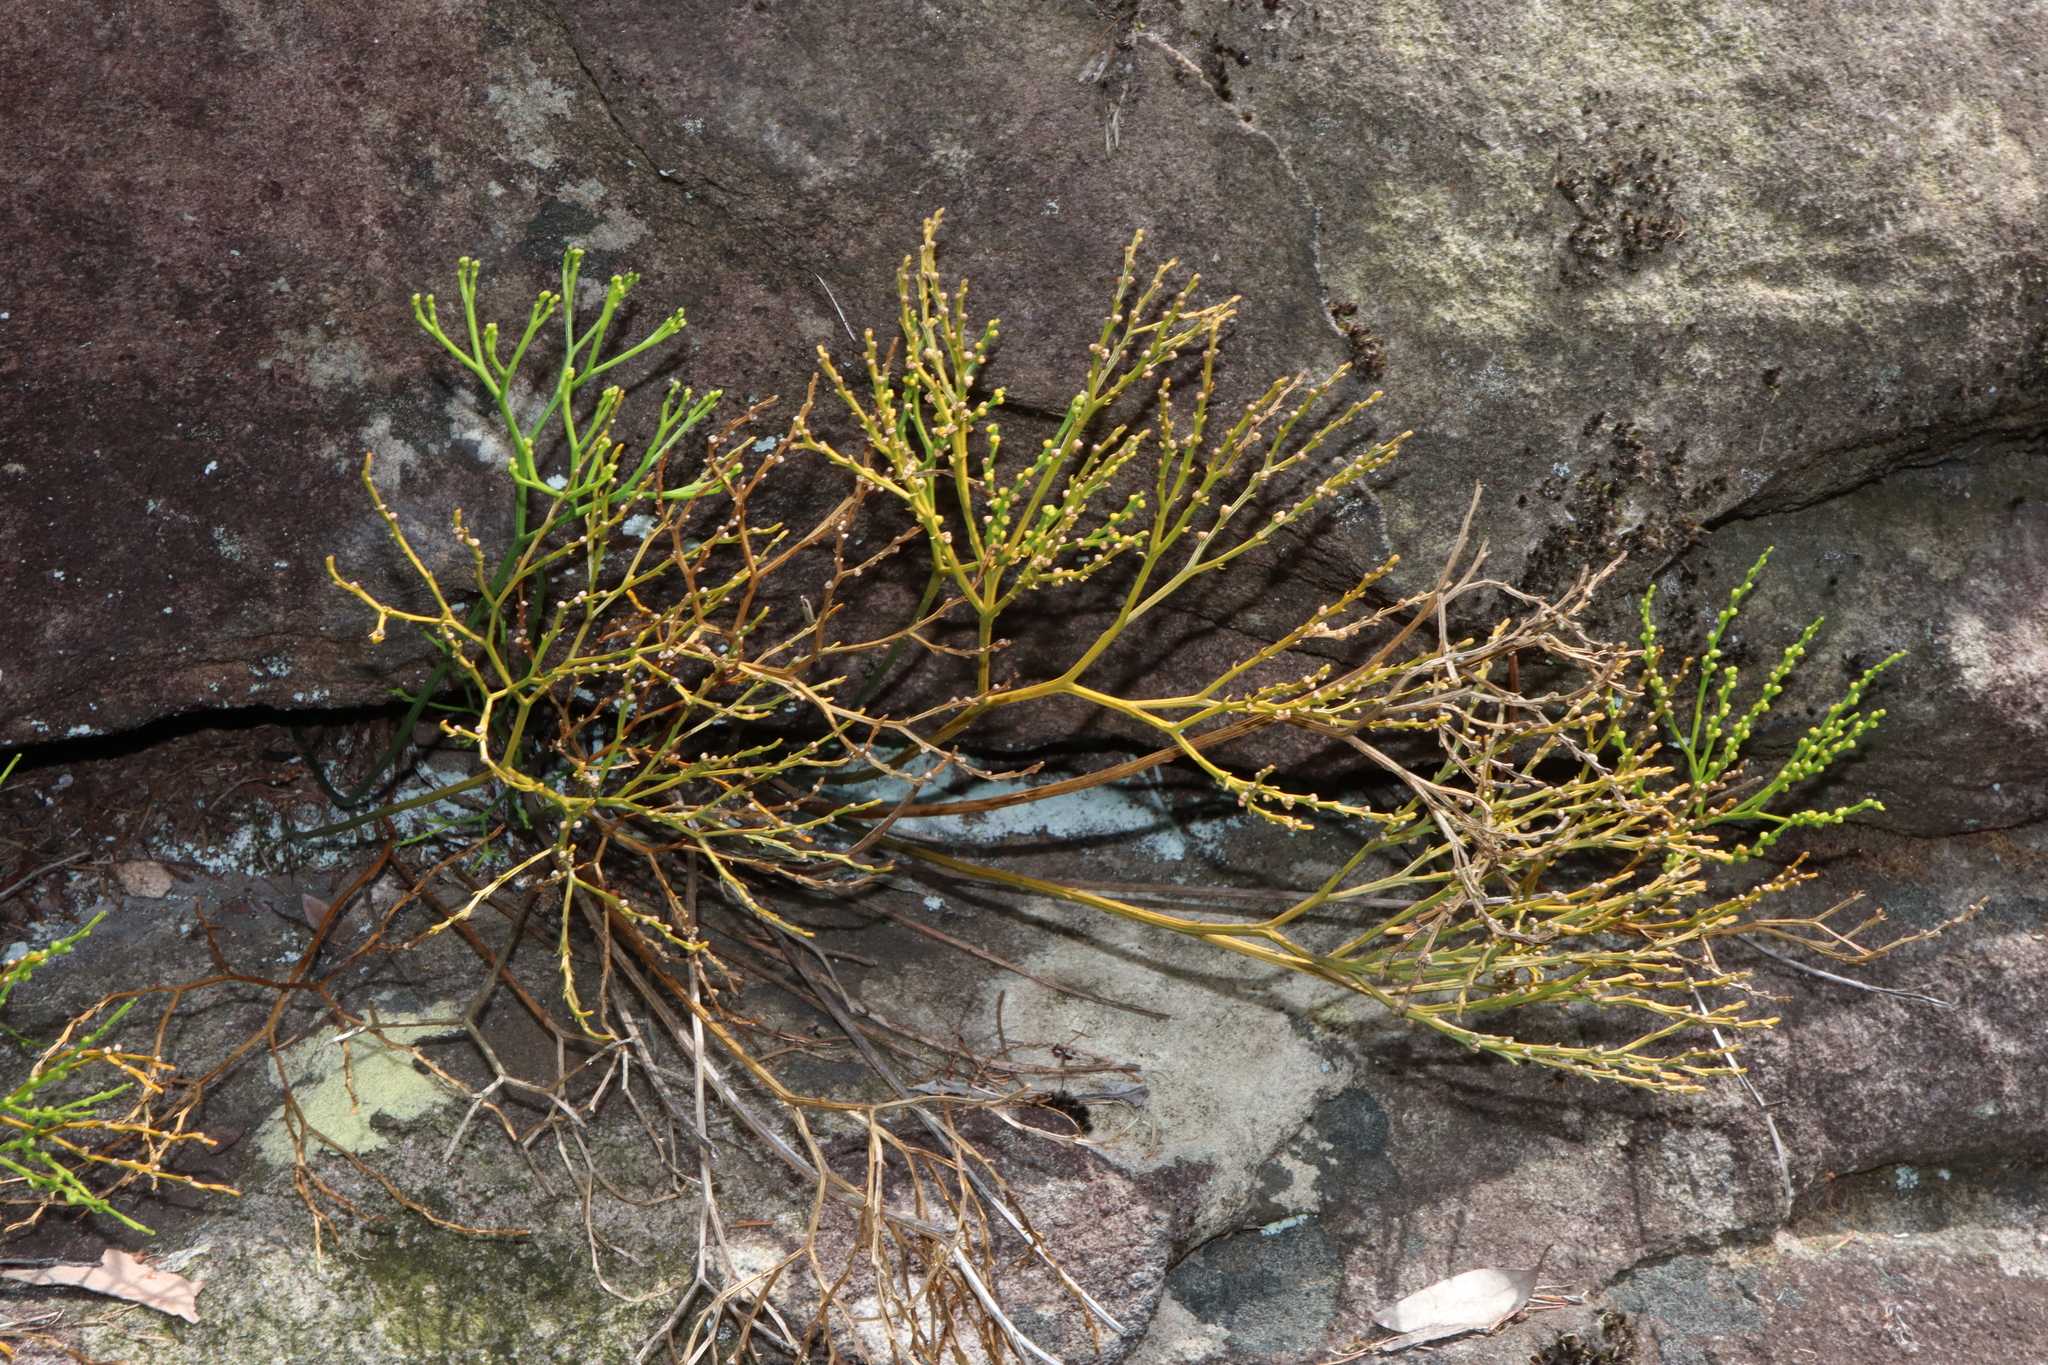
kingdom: Plantae
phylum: Tracheophyta
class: Polypodiopsida
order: Psilotales
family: Psilotaceae
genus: Psilotum
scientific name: Psilotum nudum
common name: Skeleton fork fern
